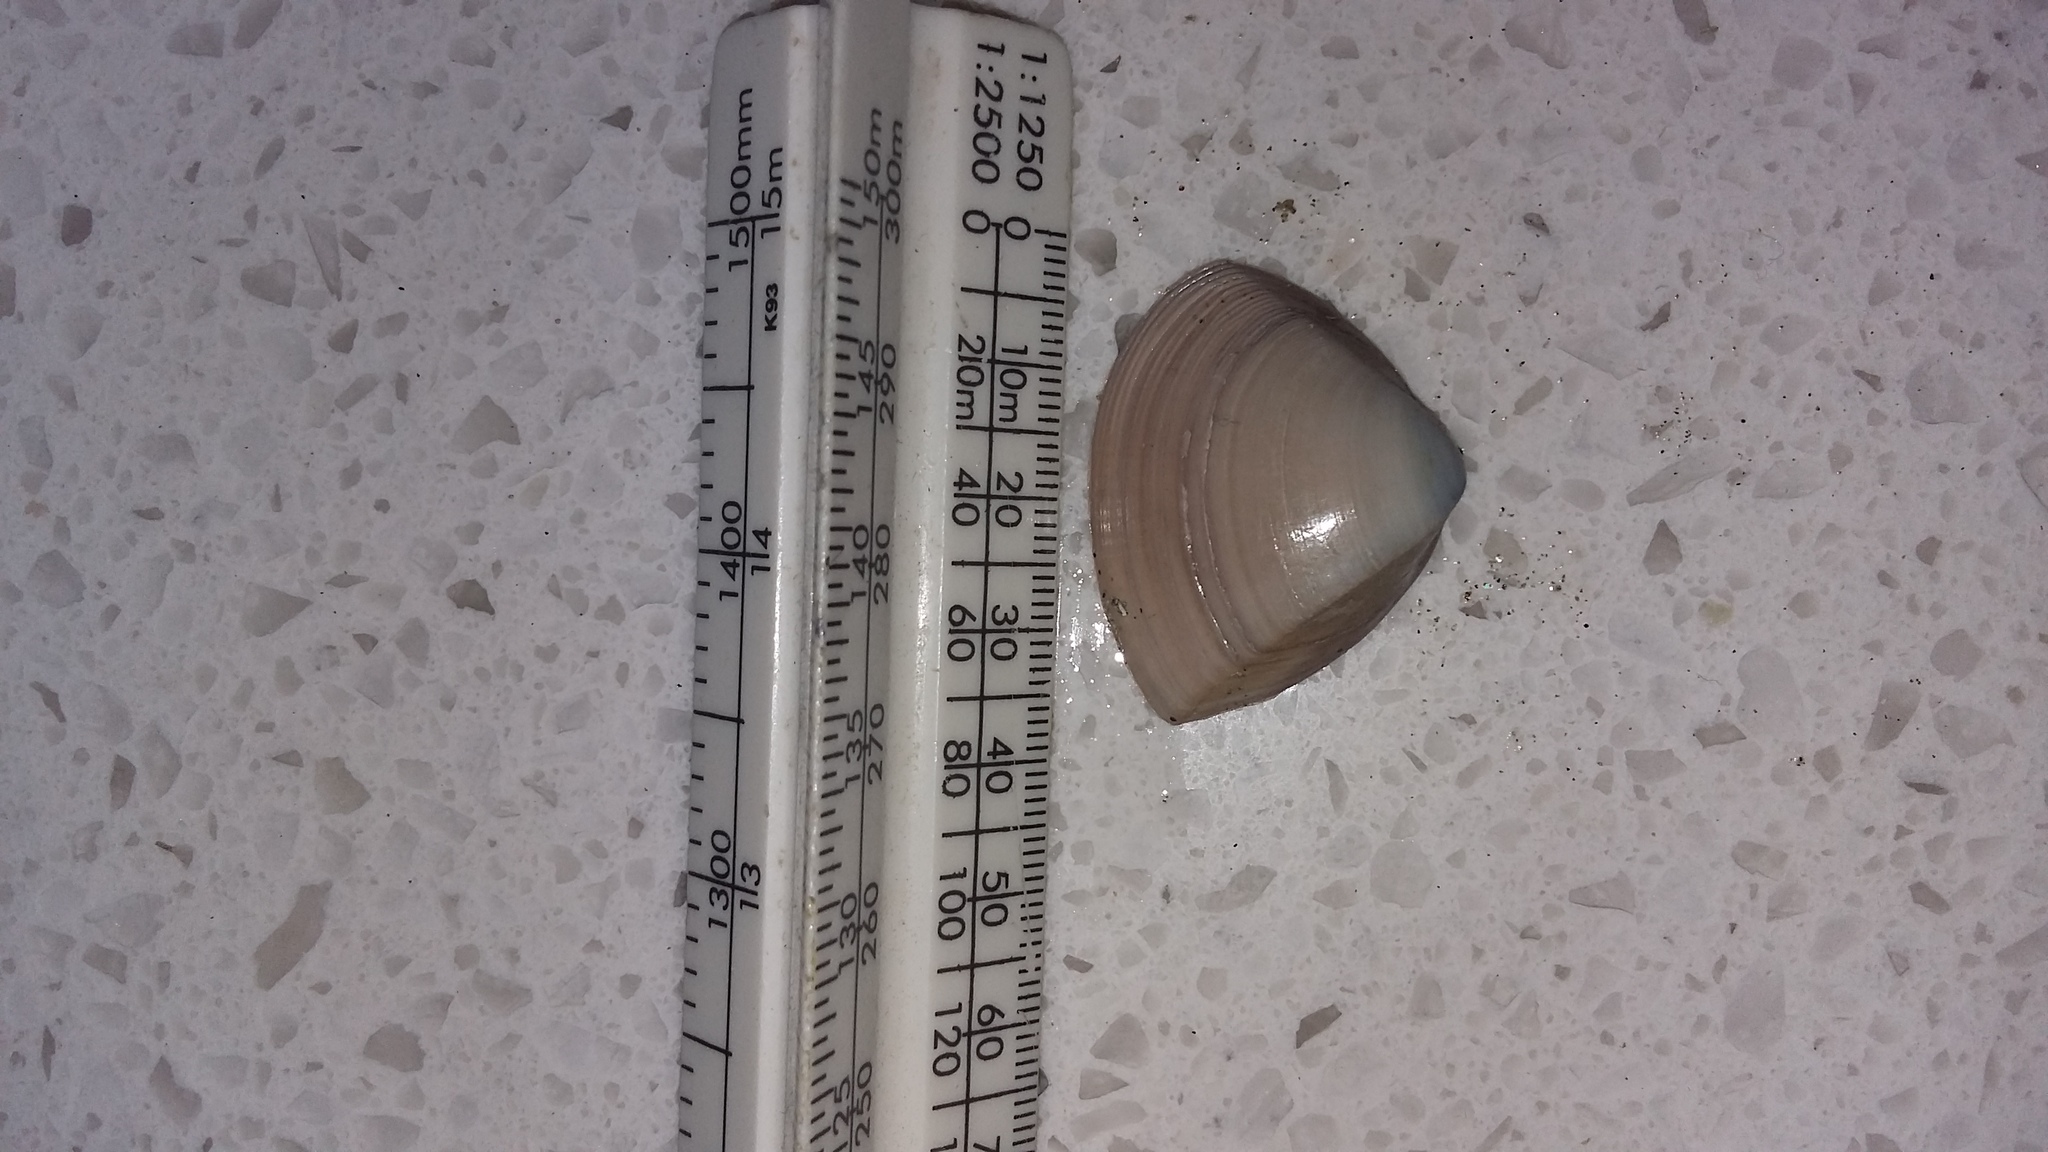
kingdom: Animalia
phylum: Mollusca
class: Bivalvia
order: Venerida
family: Mactridae
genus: Crassula
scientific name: Crassula aequilatera
